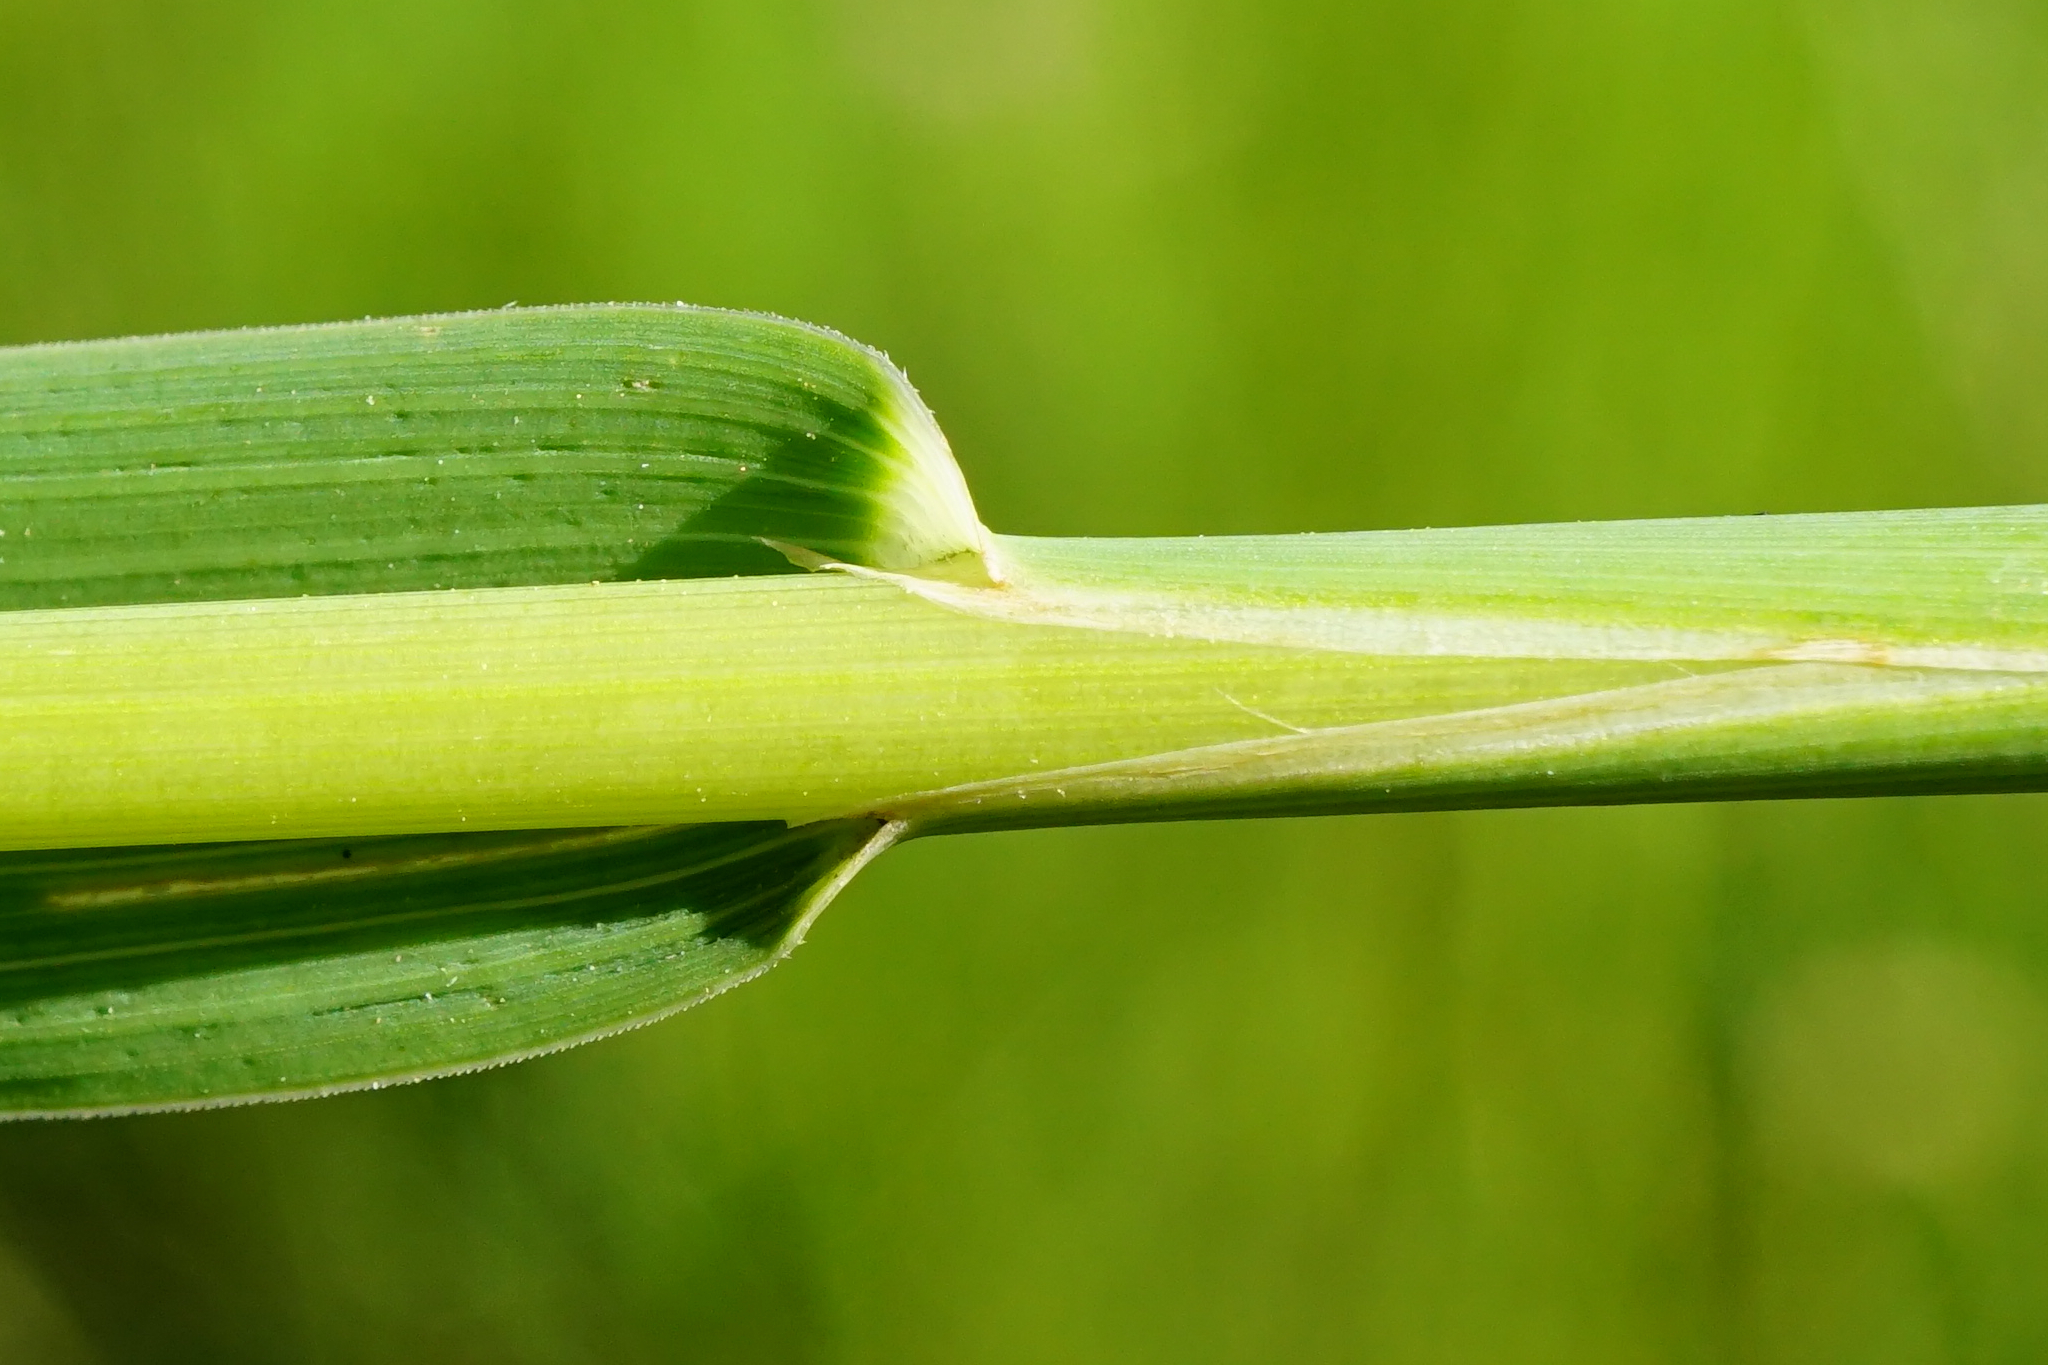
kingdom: Plantae
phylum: Tracheophyta
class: Liliopsida
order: Poales
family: Poaceae
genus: Phleum
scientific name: Phleum pratense
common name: Timothy grass
